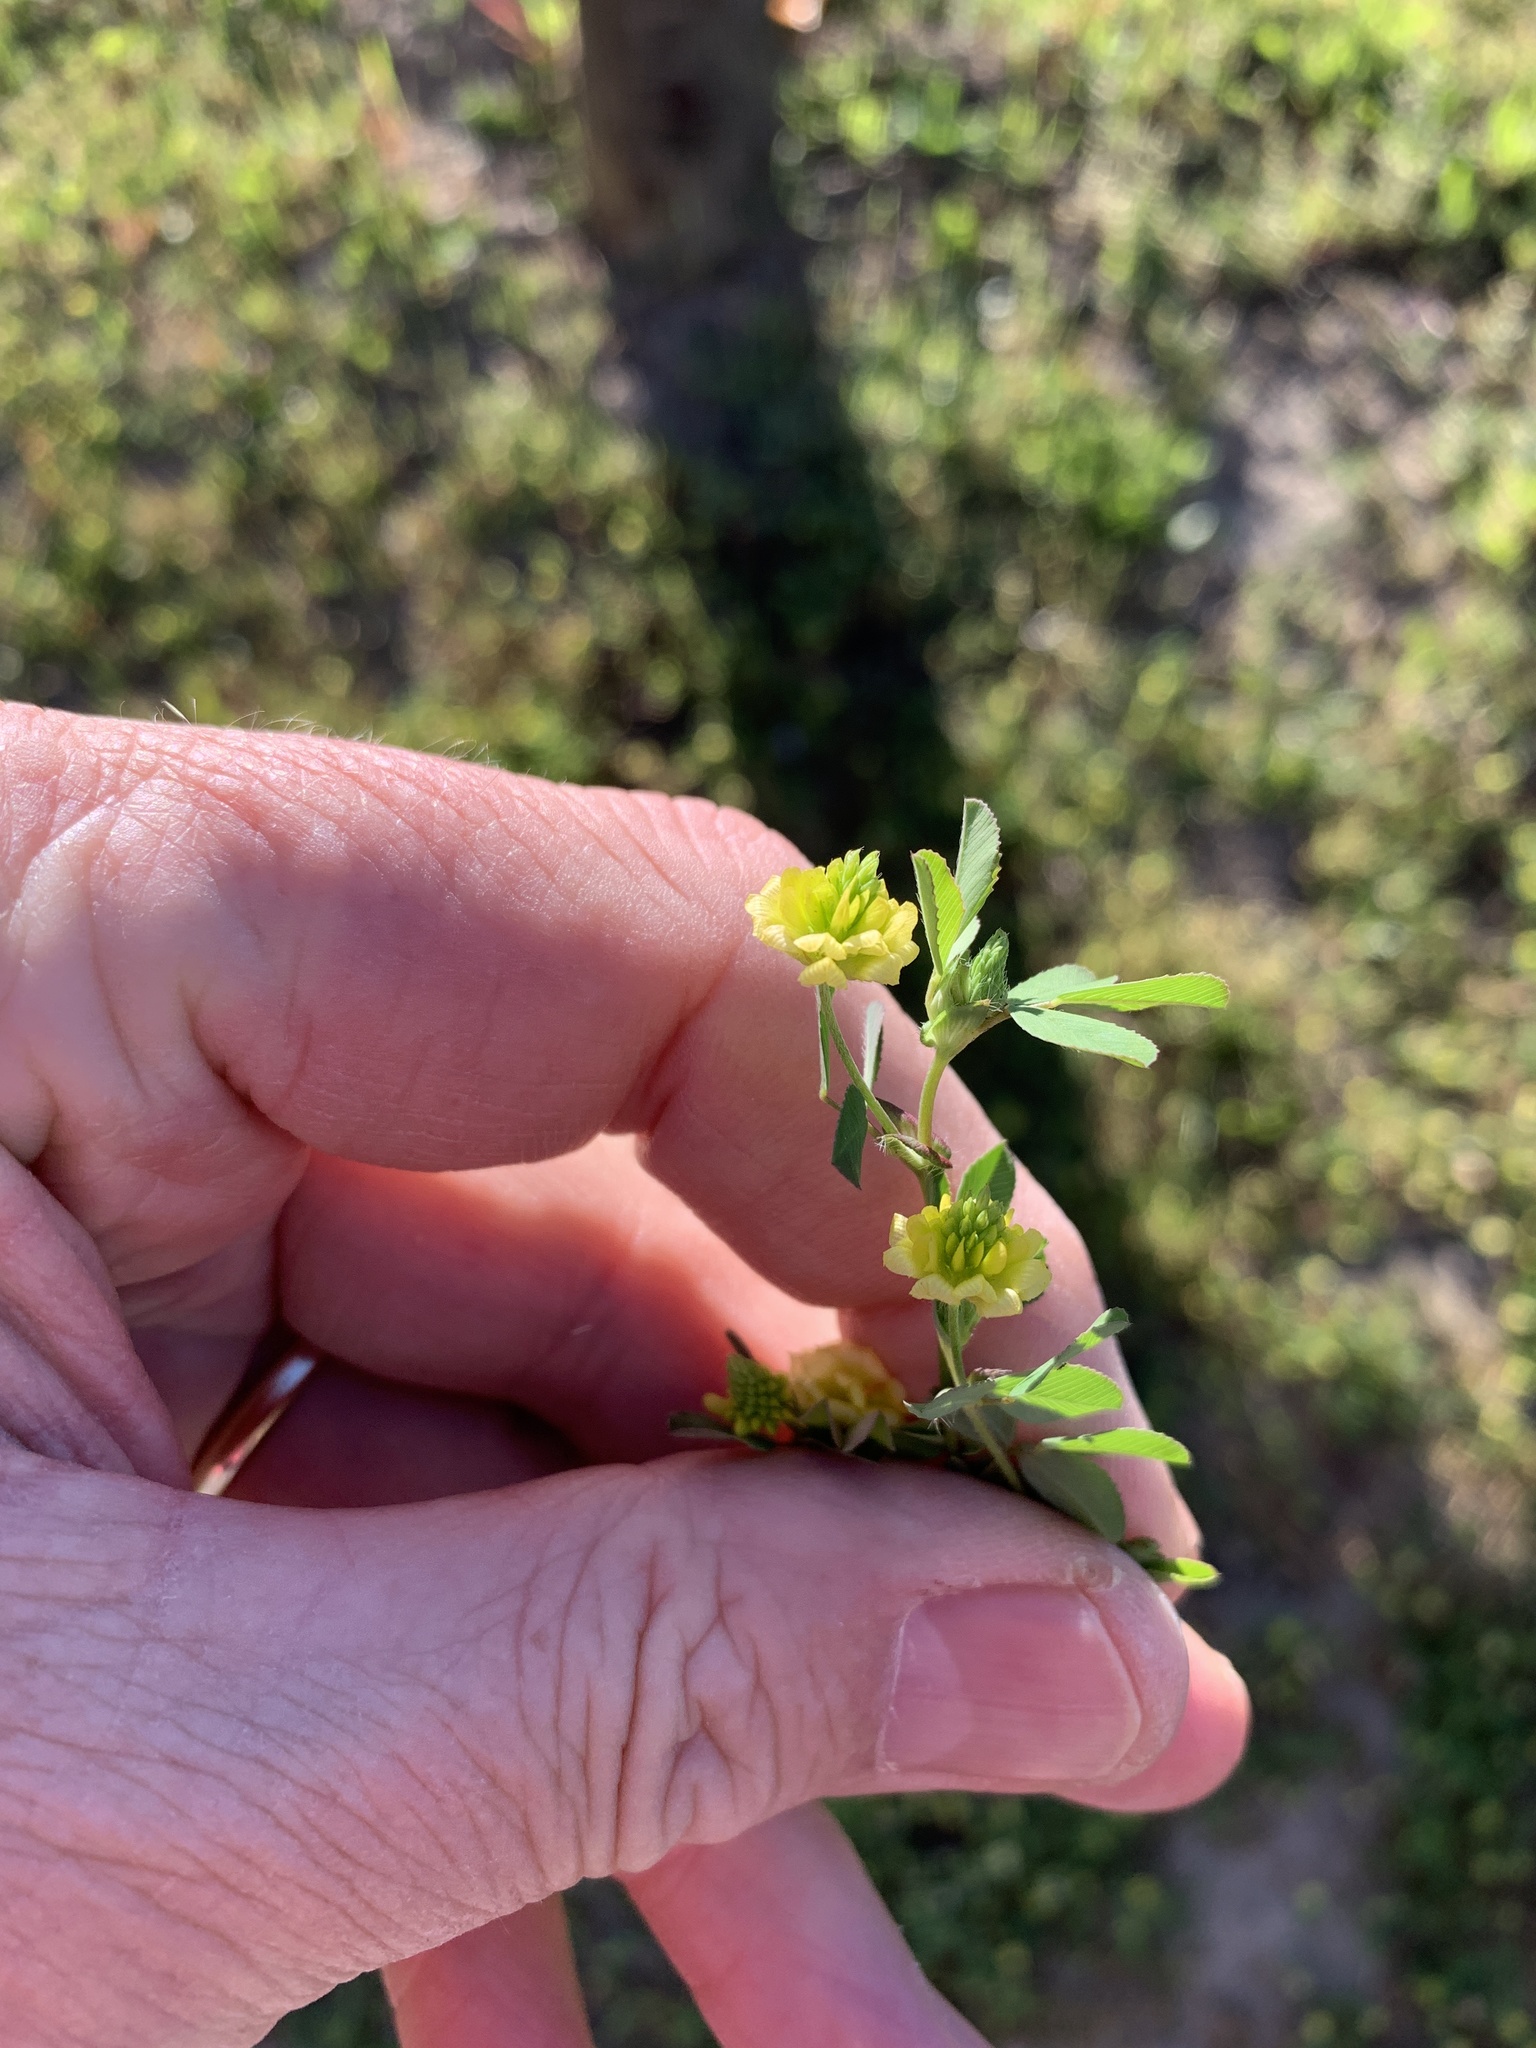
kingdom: Plantae
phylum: Tracheophyta
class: Magnoliopsida
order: Fabales
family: Fabaceae
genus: Trifolium
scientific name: Trifolium campestre
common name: Field clover
